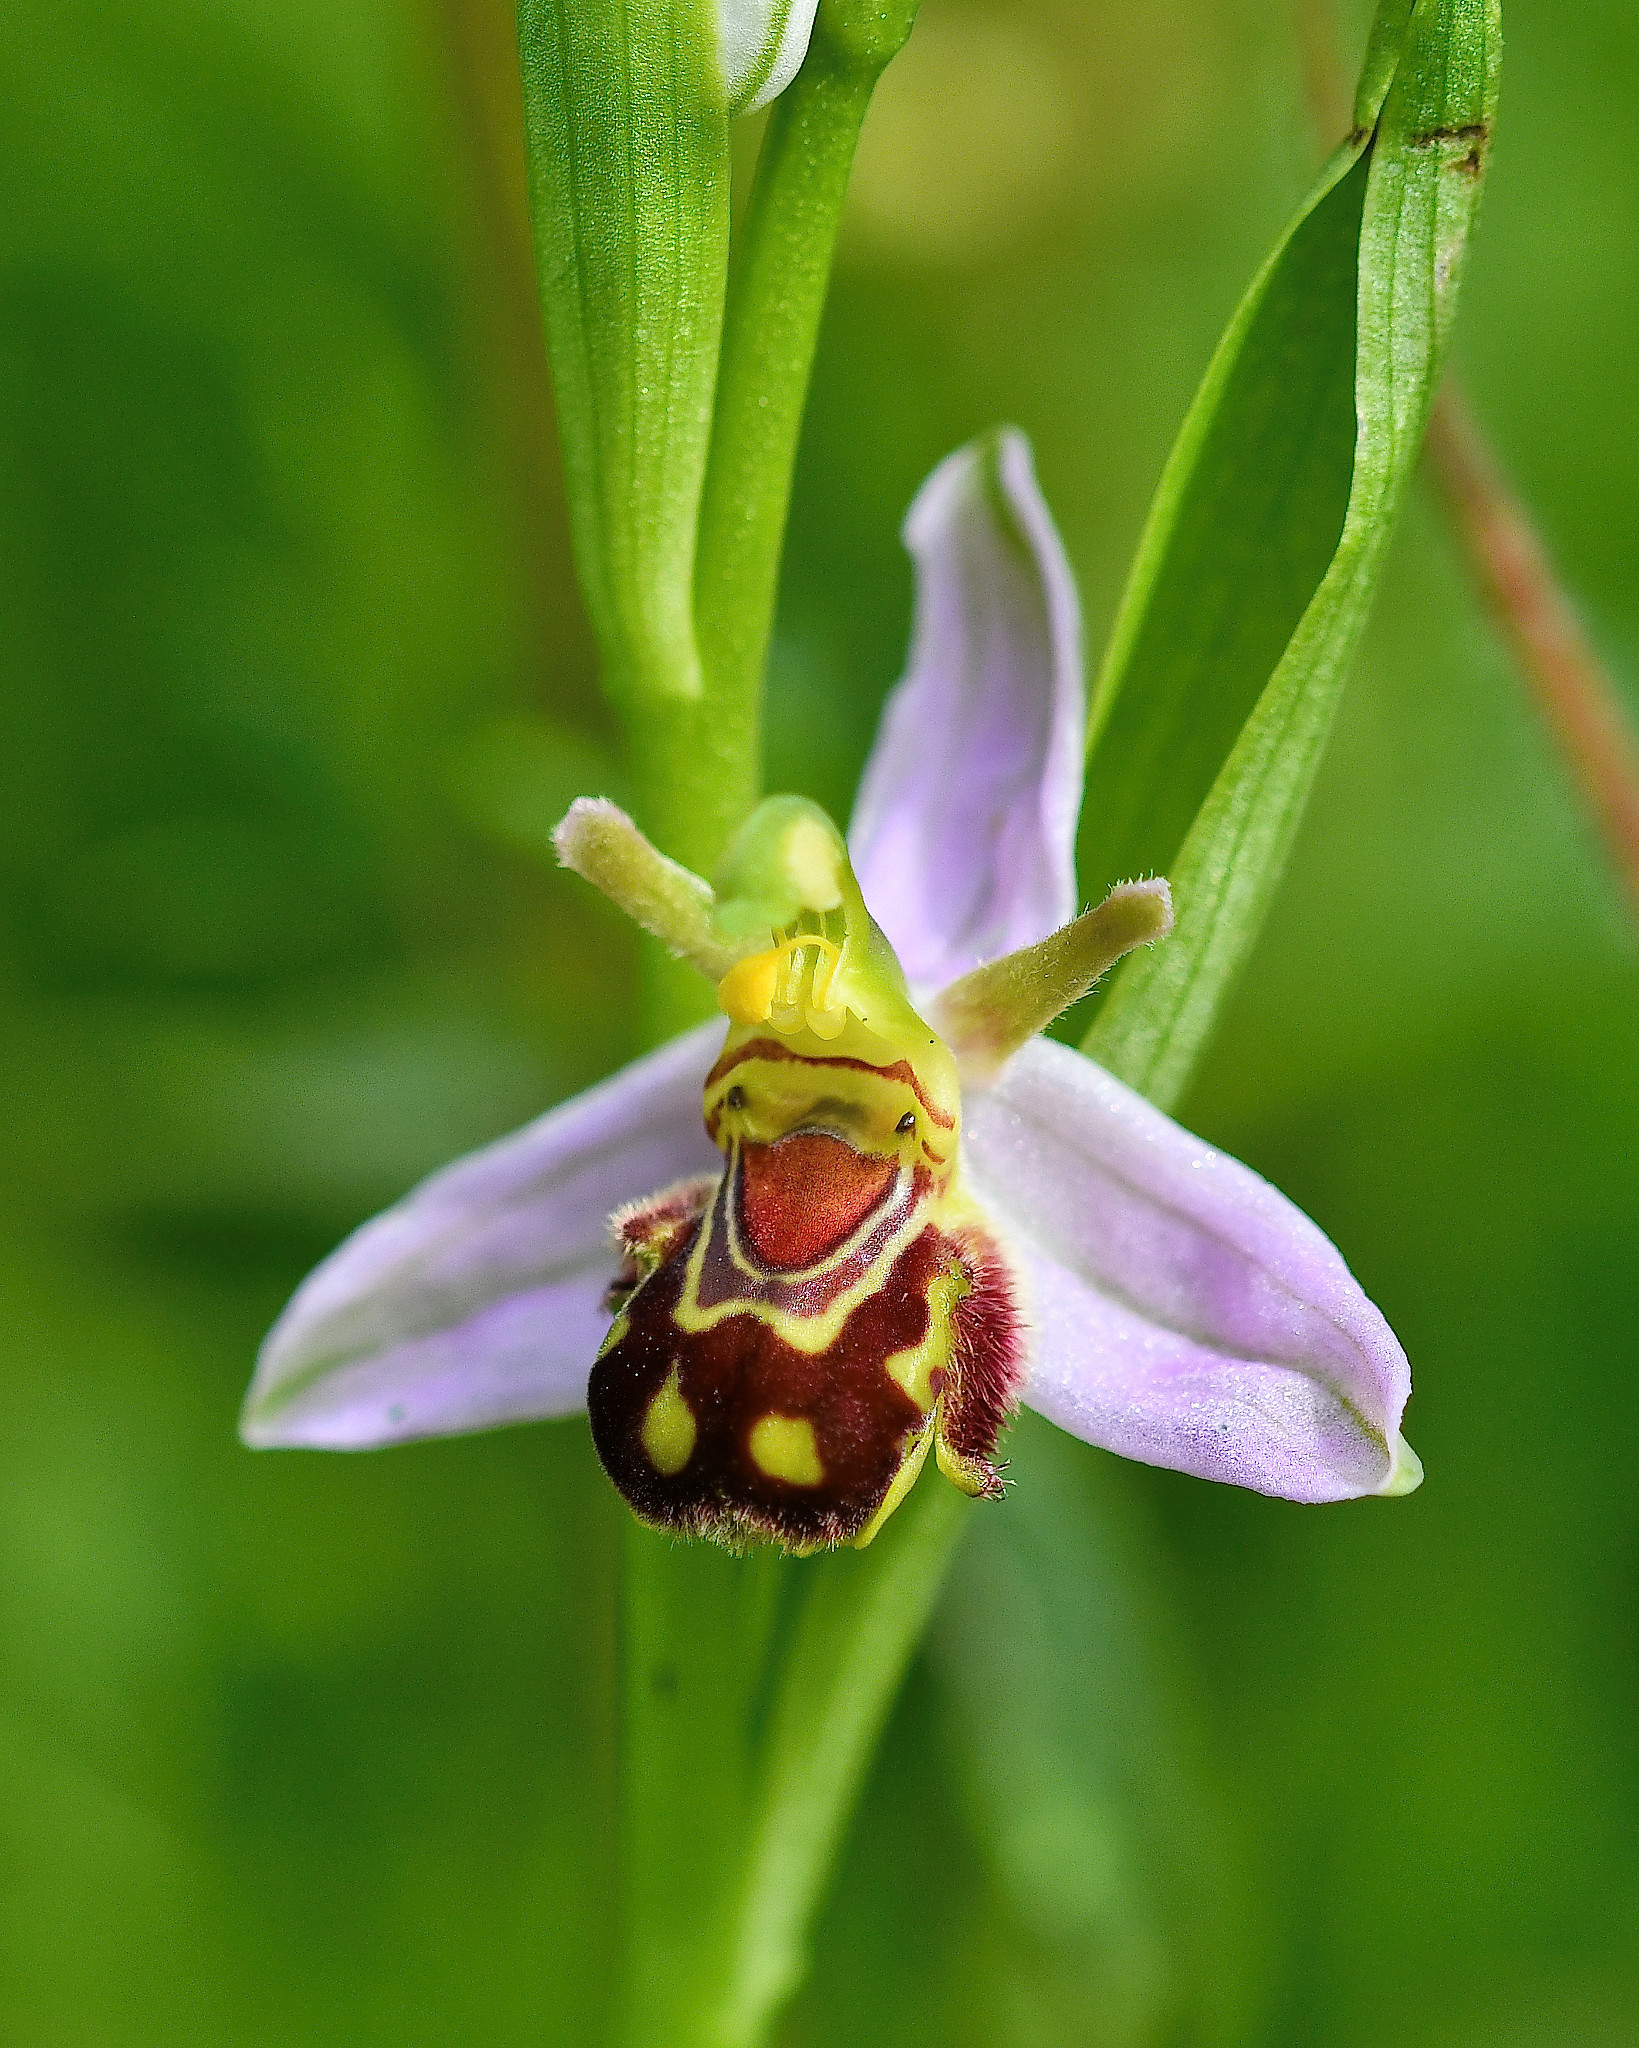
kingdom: Plantae
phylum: Tracheophyta
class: Liliopsida
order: Asparagales
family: Orchidaceae
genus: Ophrys
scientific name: Ophrys apifera
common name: Bee orchid
